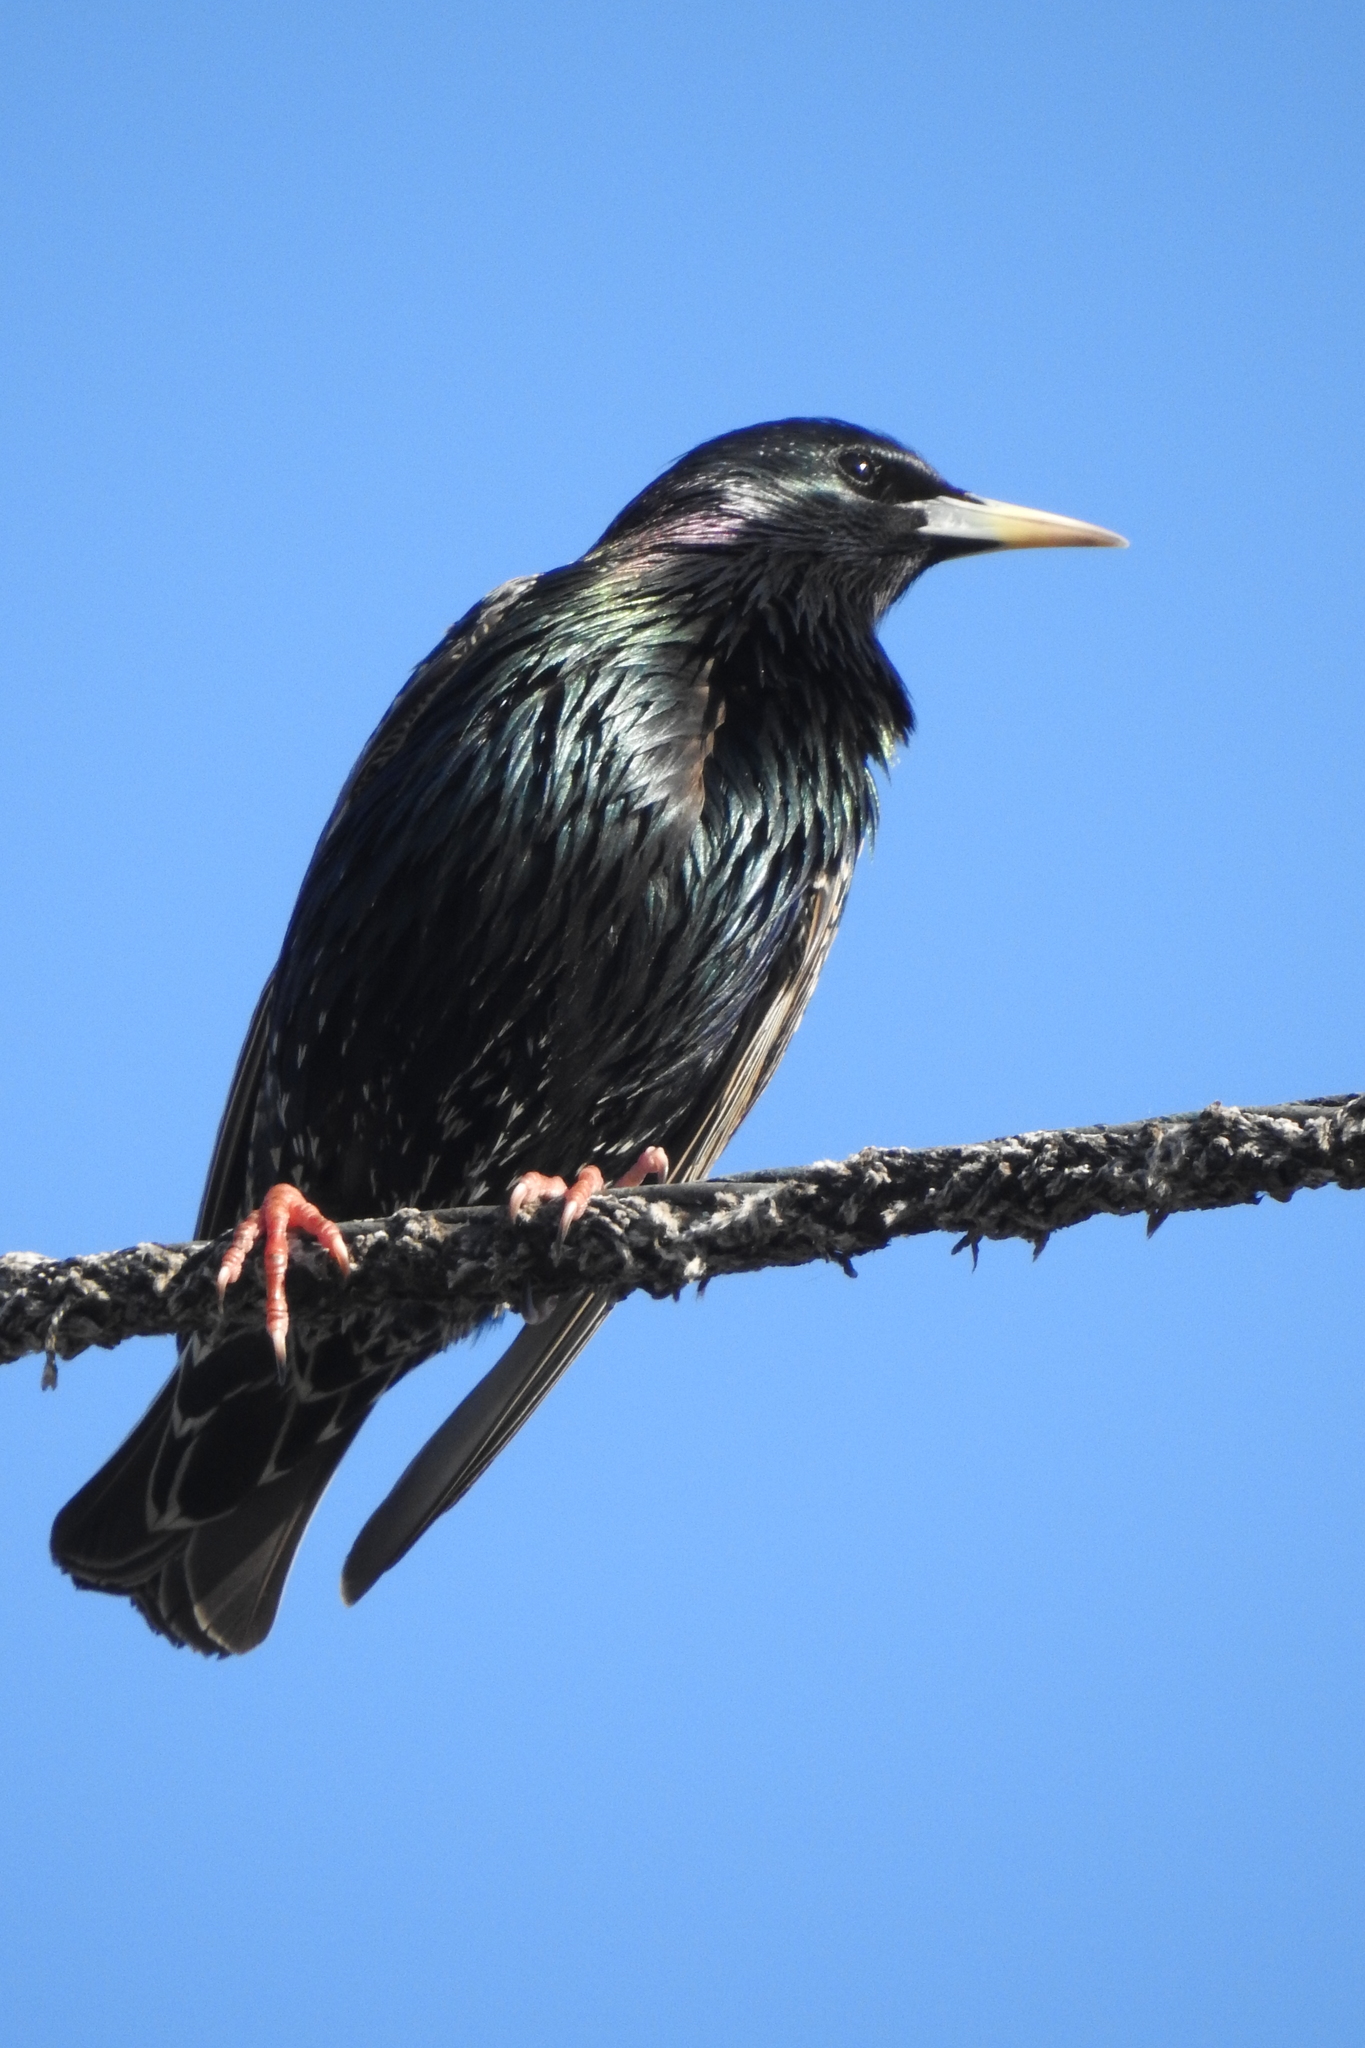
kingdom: Animalia
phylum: Chordata
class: Aves
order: Passeriformes
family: Sturnidae
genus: Sturnus
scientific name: Sturnus vulgaris
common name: Common starling
